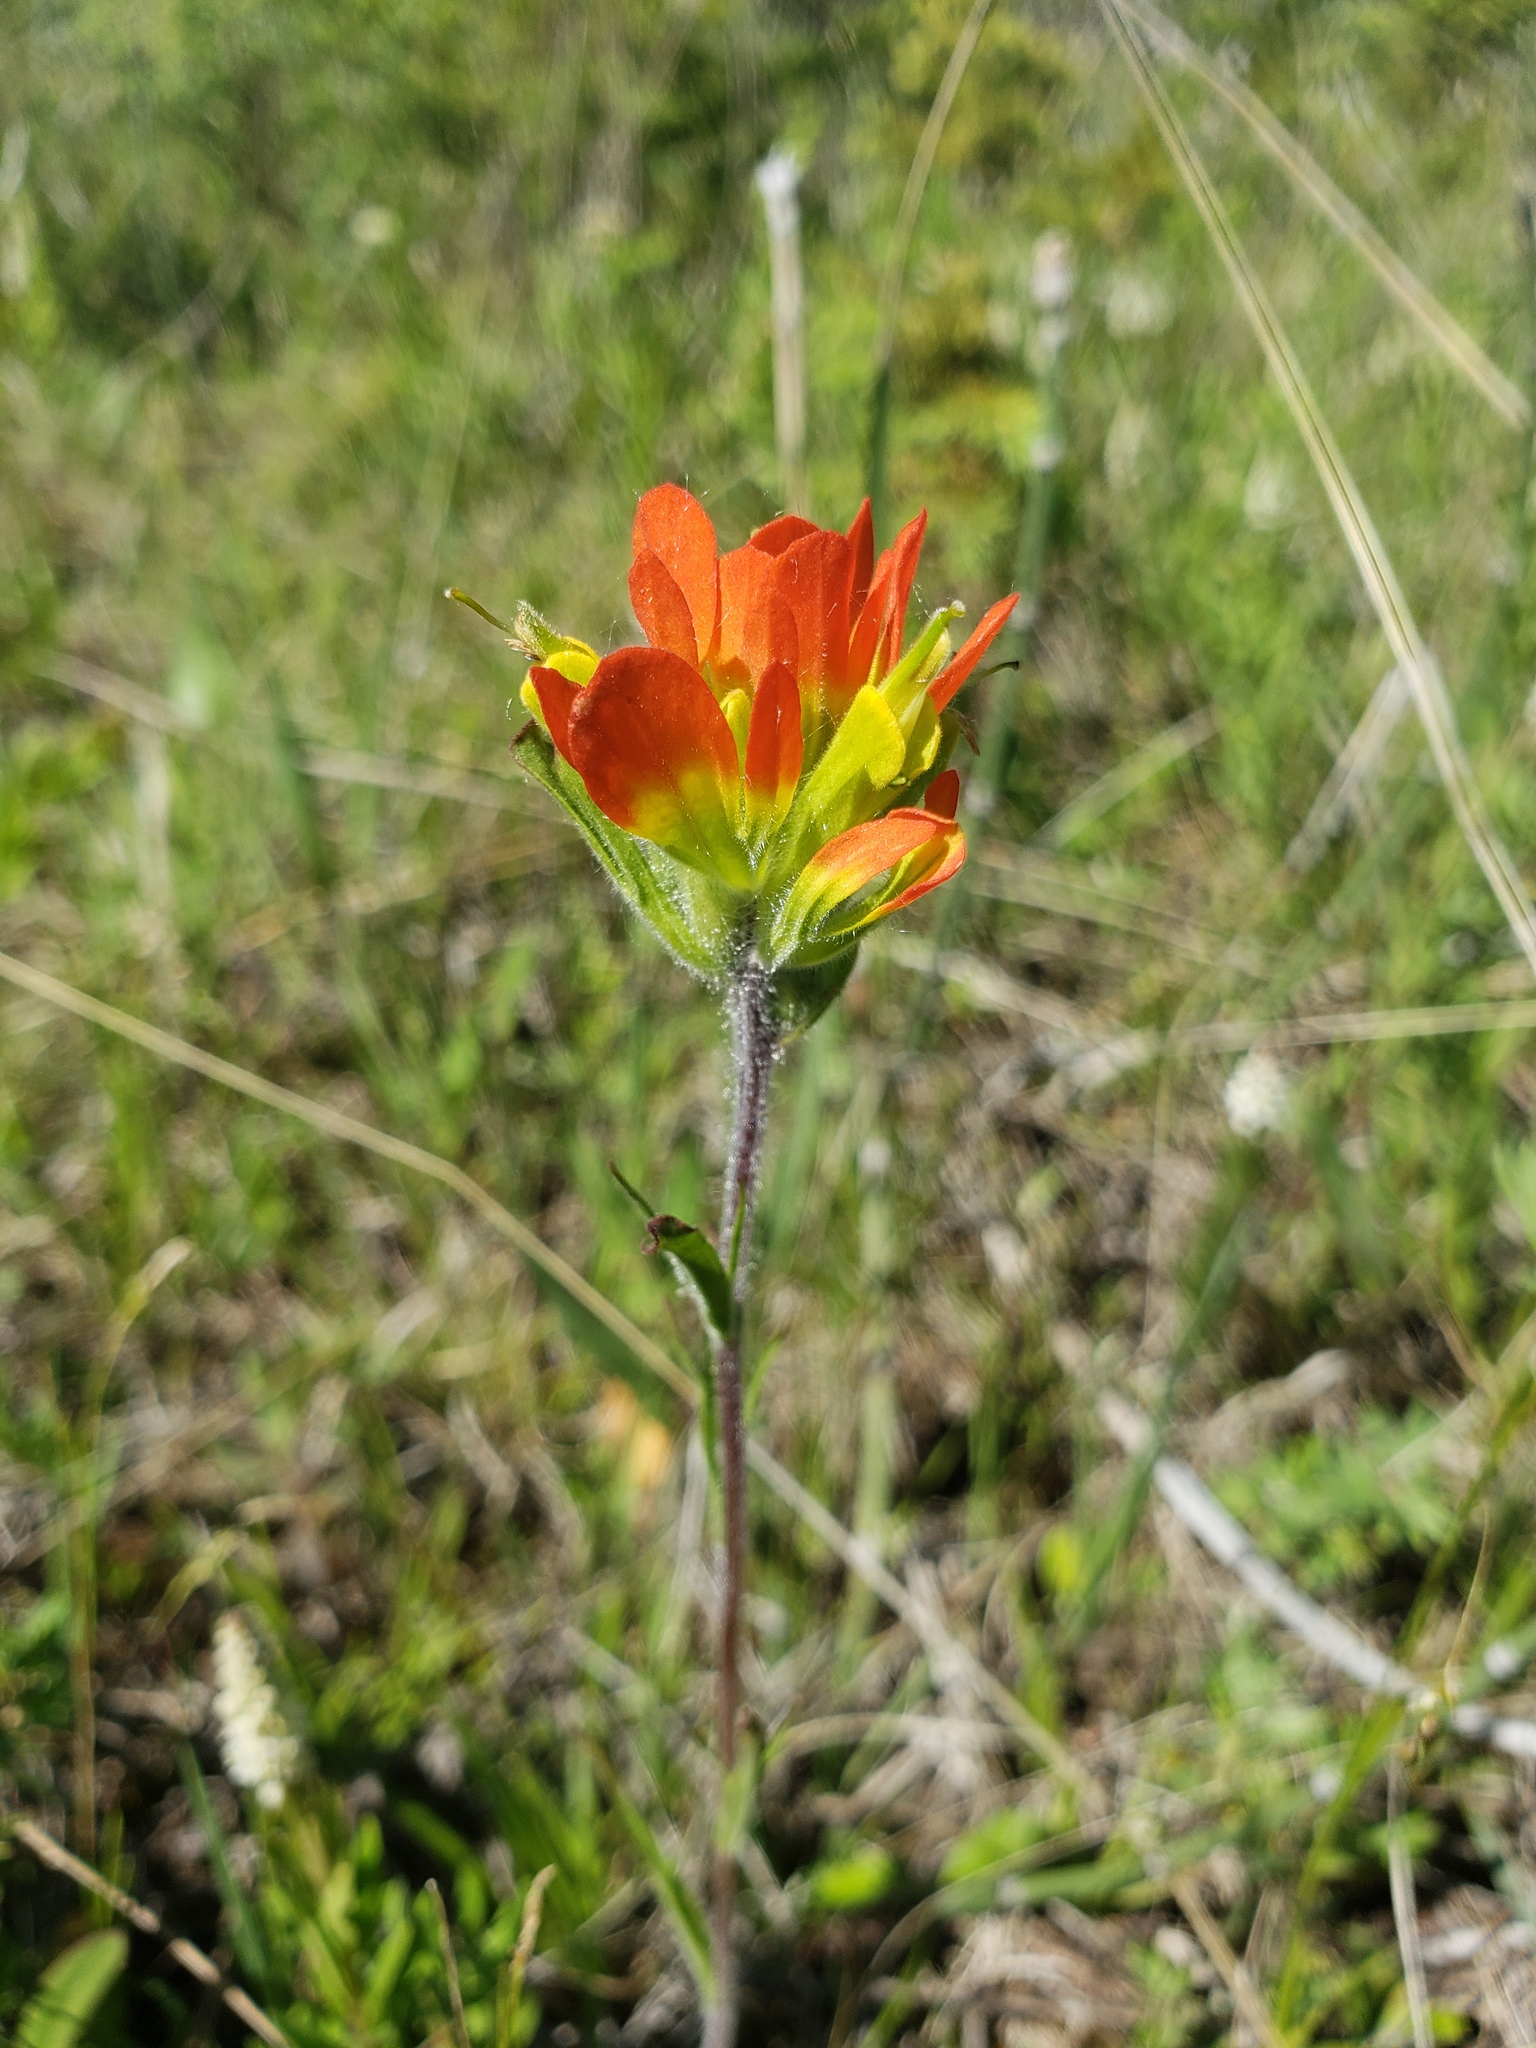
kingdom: Plantae
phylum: Tracheophyta
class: Magnoliopsida
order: Lamiales
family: Orobanchaceae
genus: Castilleja
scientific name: Castilleja coccinea
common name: Scarlet paintbrush
